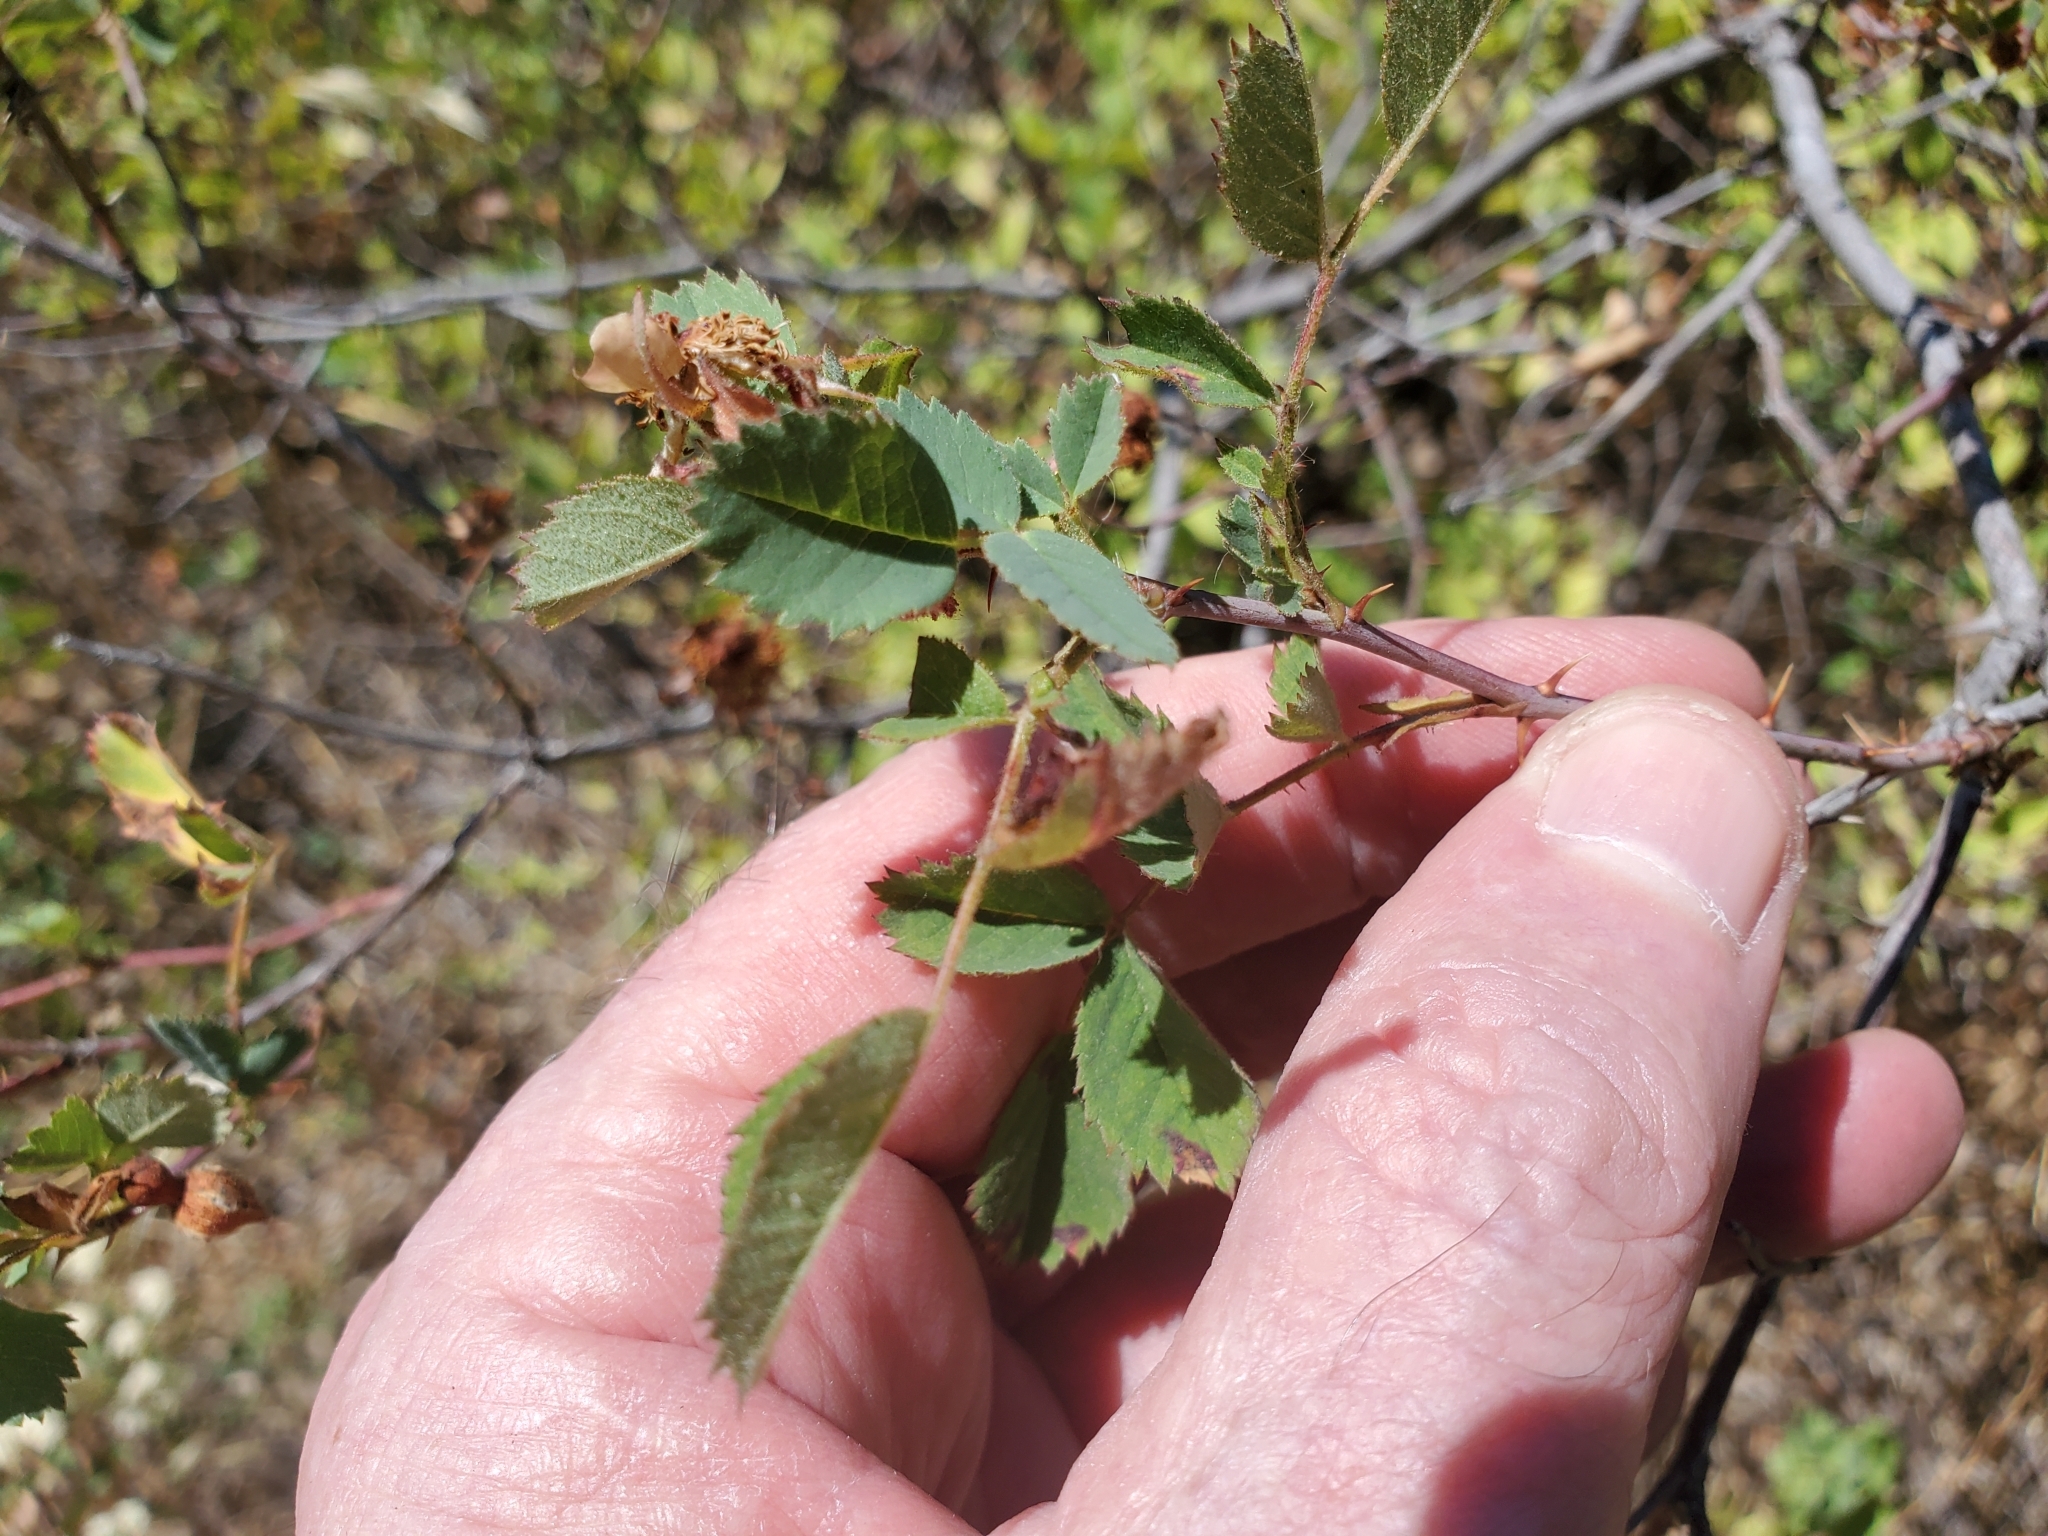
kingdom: Plantae
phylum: Tracheophyta
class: Magnoliopsida
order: Rosales
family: Rosaceae
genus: Rosa
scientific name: Rosa californica
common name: California rose
